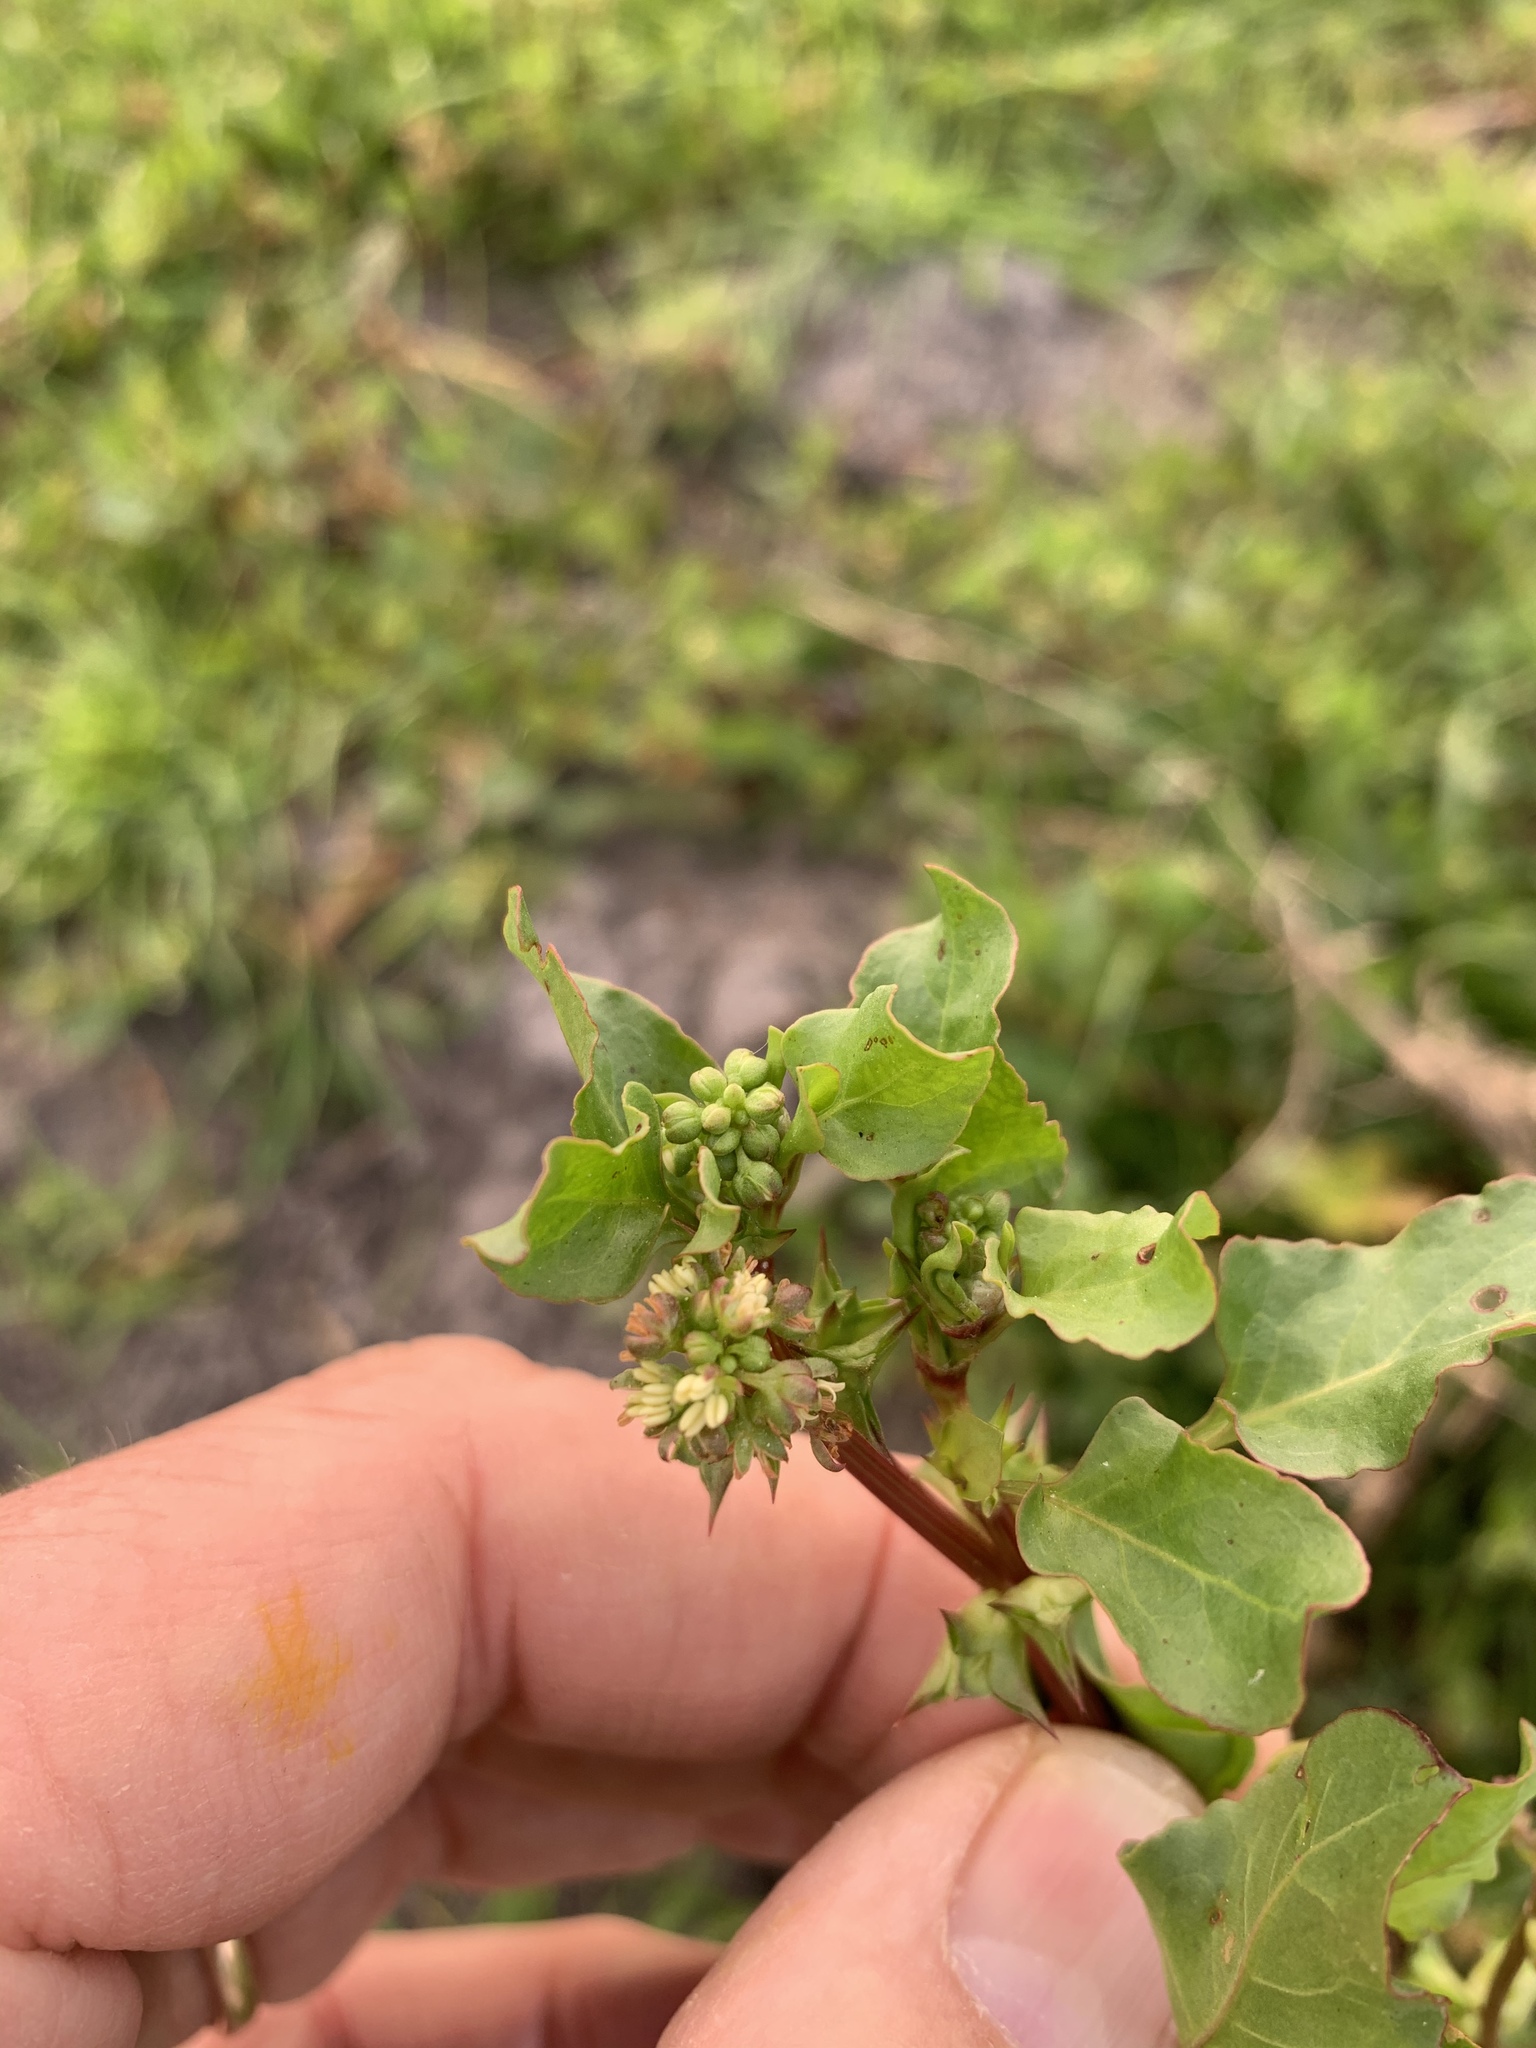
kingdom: Plantae
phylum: Tracheophyta
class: Magnoliopsida
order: Caryophyllales
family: Polygonaceae
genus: Rumex
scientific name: Rumex hypogaeus
